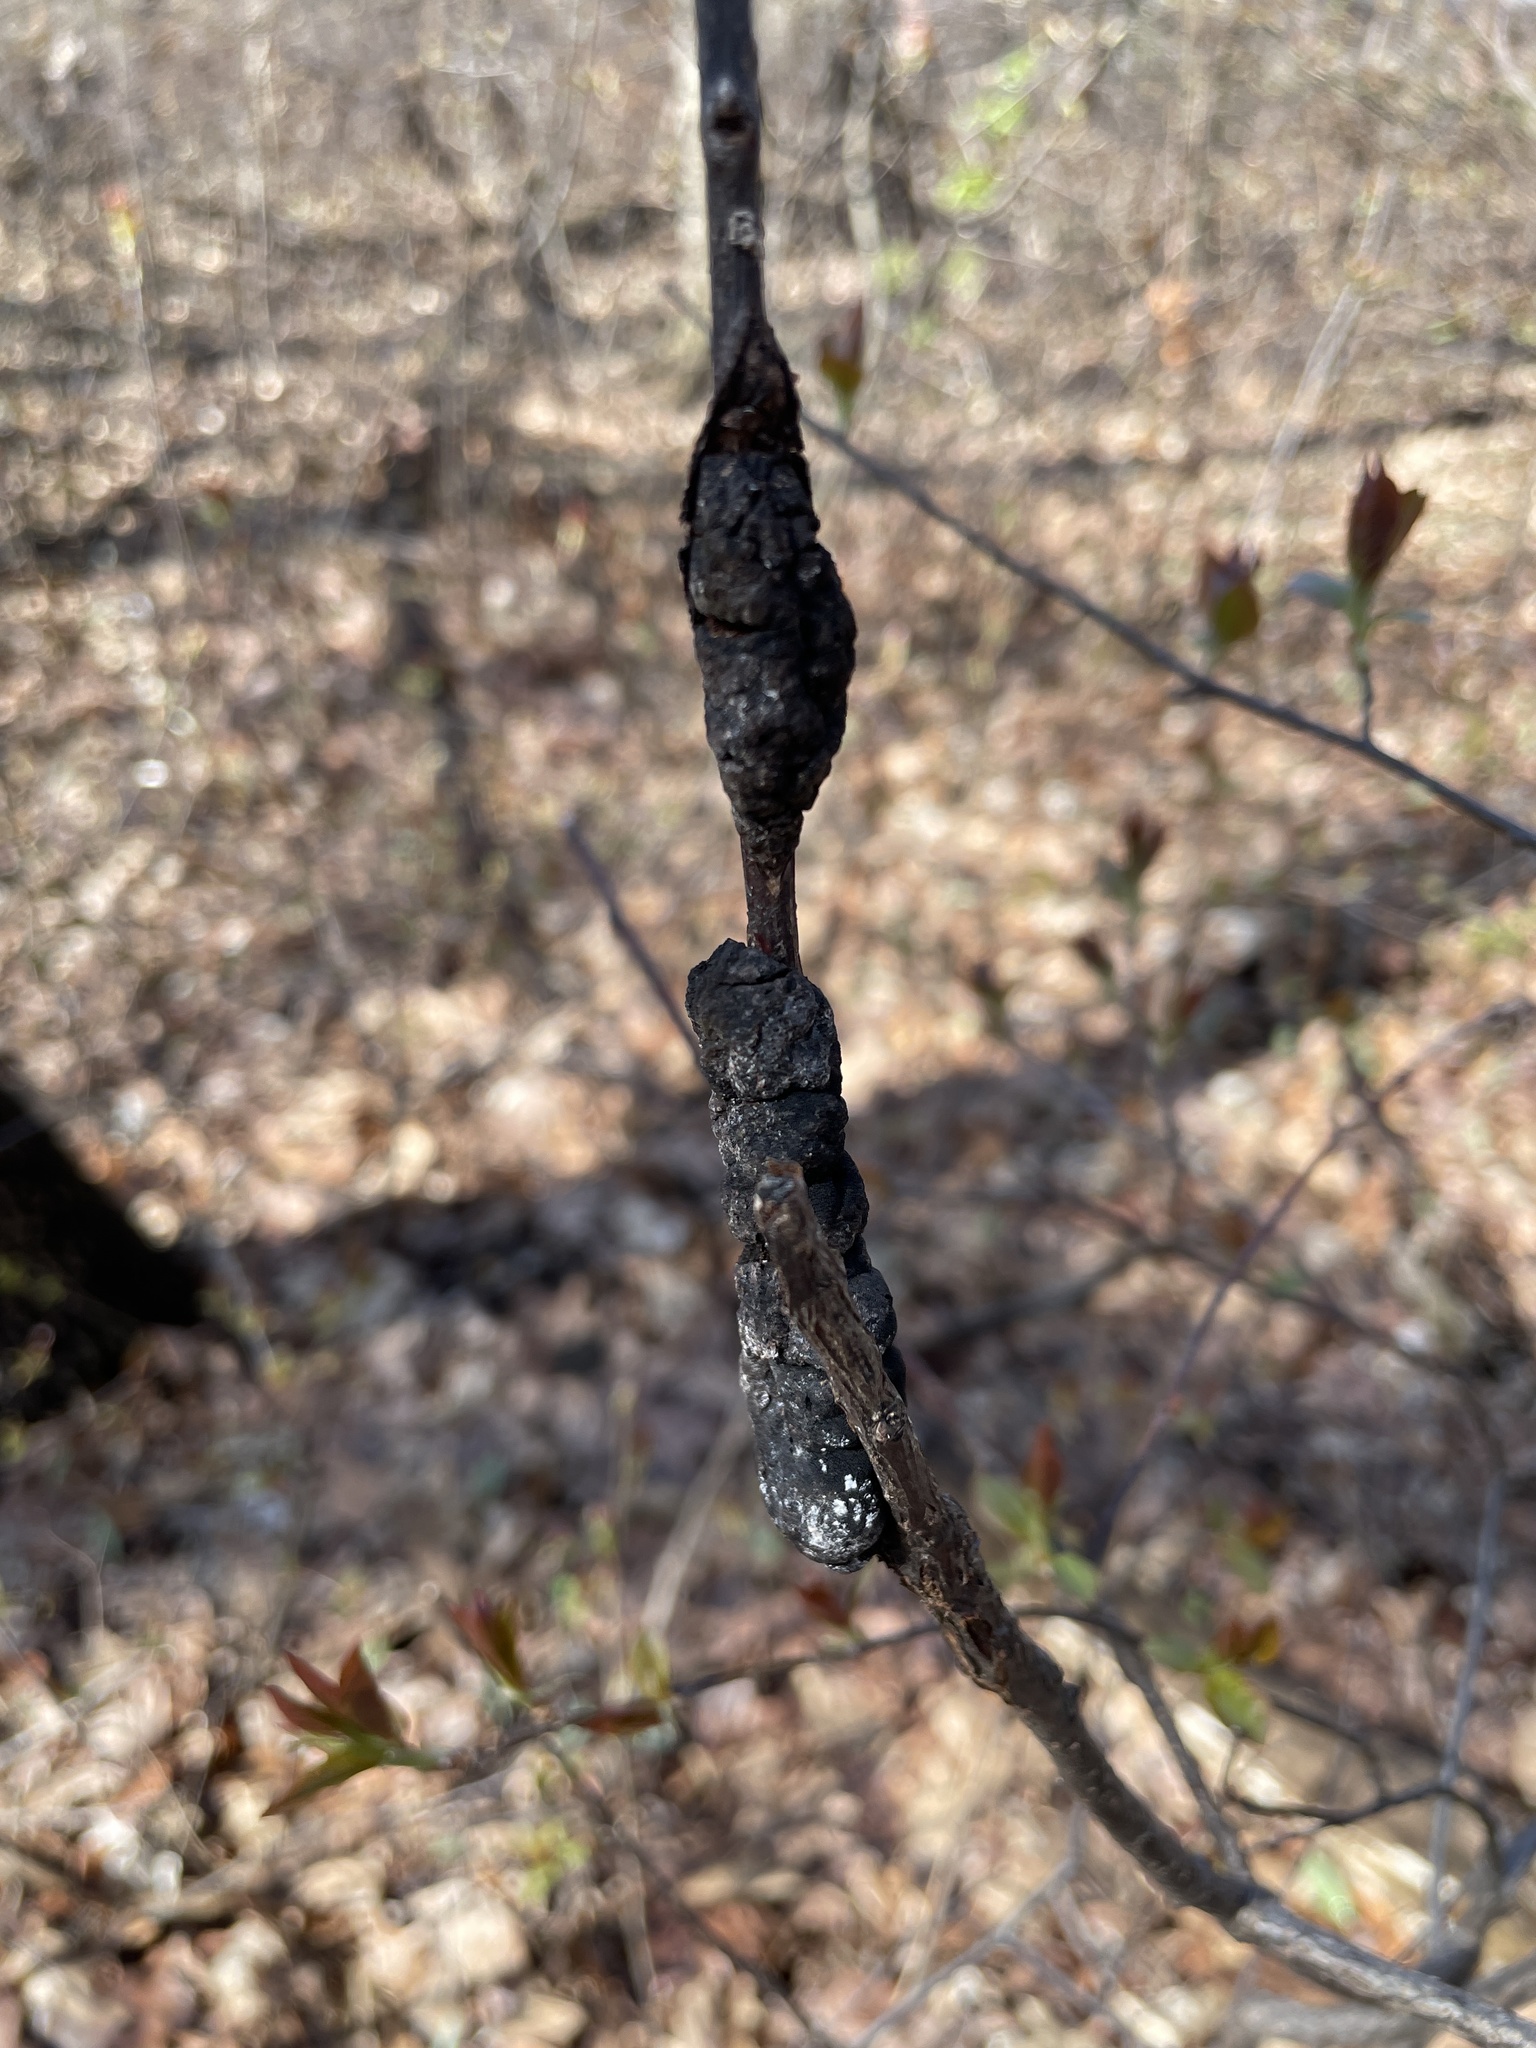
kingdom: Fungi
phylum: Ascomycota
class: Dothideomycetes
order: Venturiales
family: Venturiaceae
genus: Apiosporina
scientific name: Apiosporina morbosa
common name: Black knot
